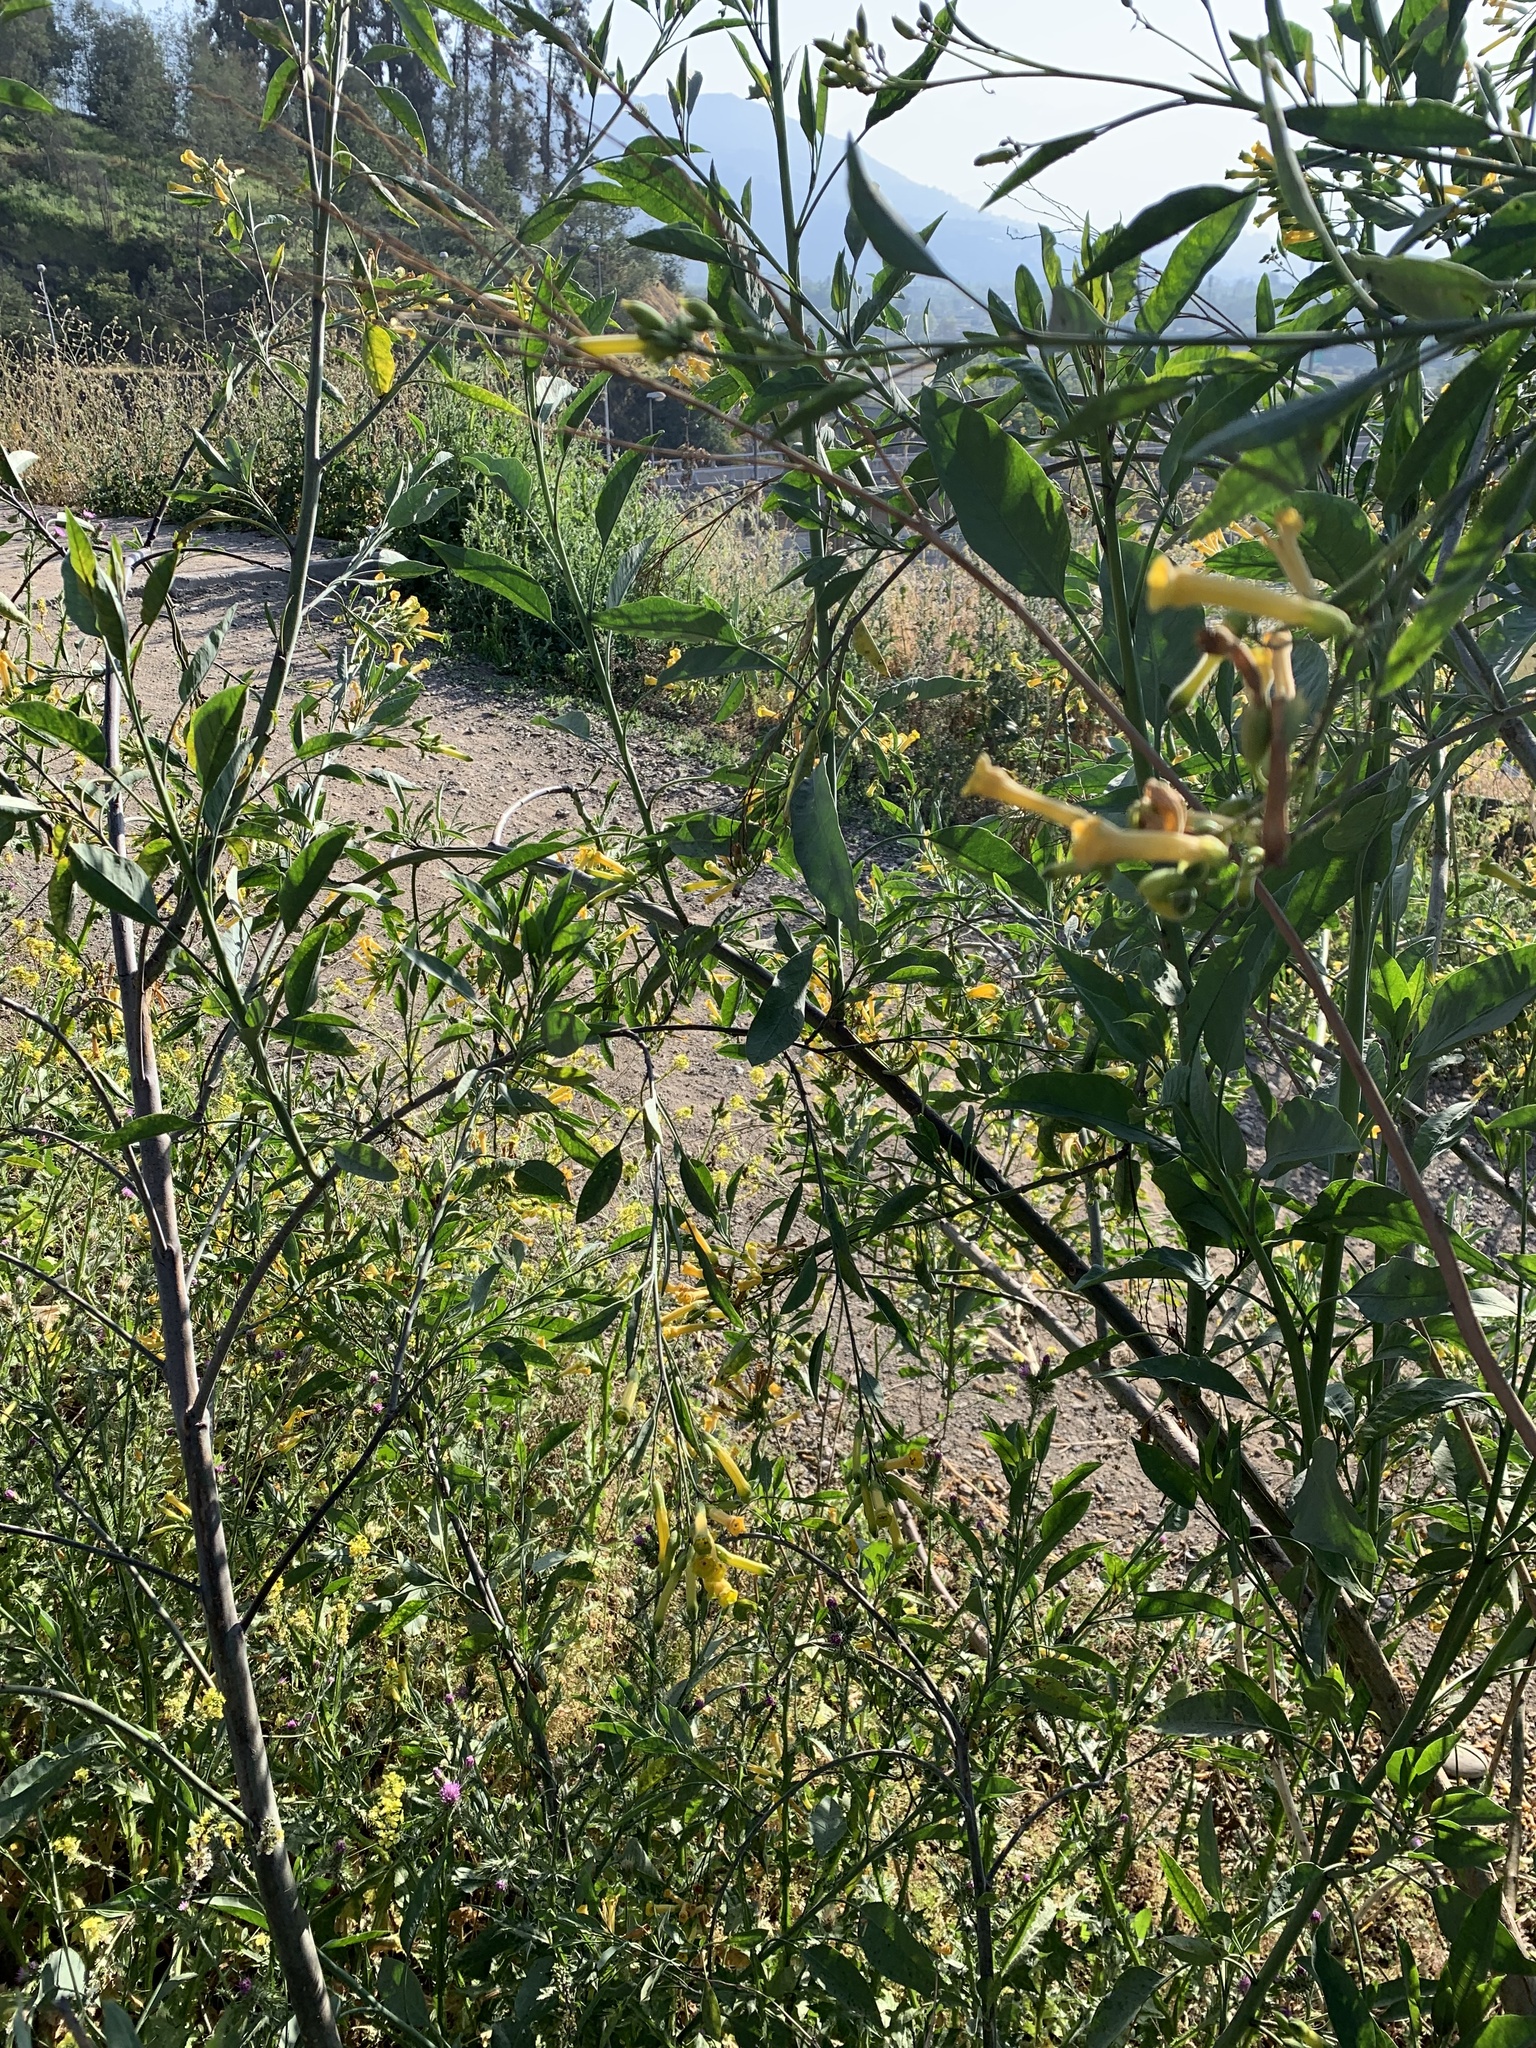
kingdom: Plantae
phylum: Tracheophyta
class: Magnoliopsida
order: Solanales
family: Solanaceae
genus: Nicotiana
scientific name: Nicotiana glauca
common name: Tree tobacco
